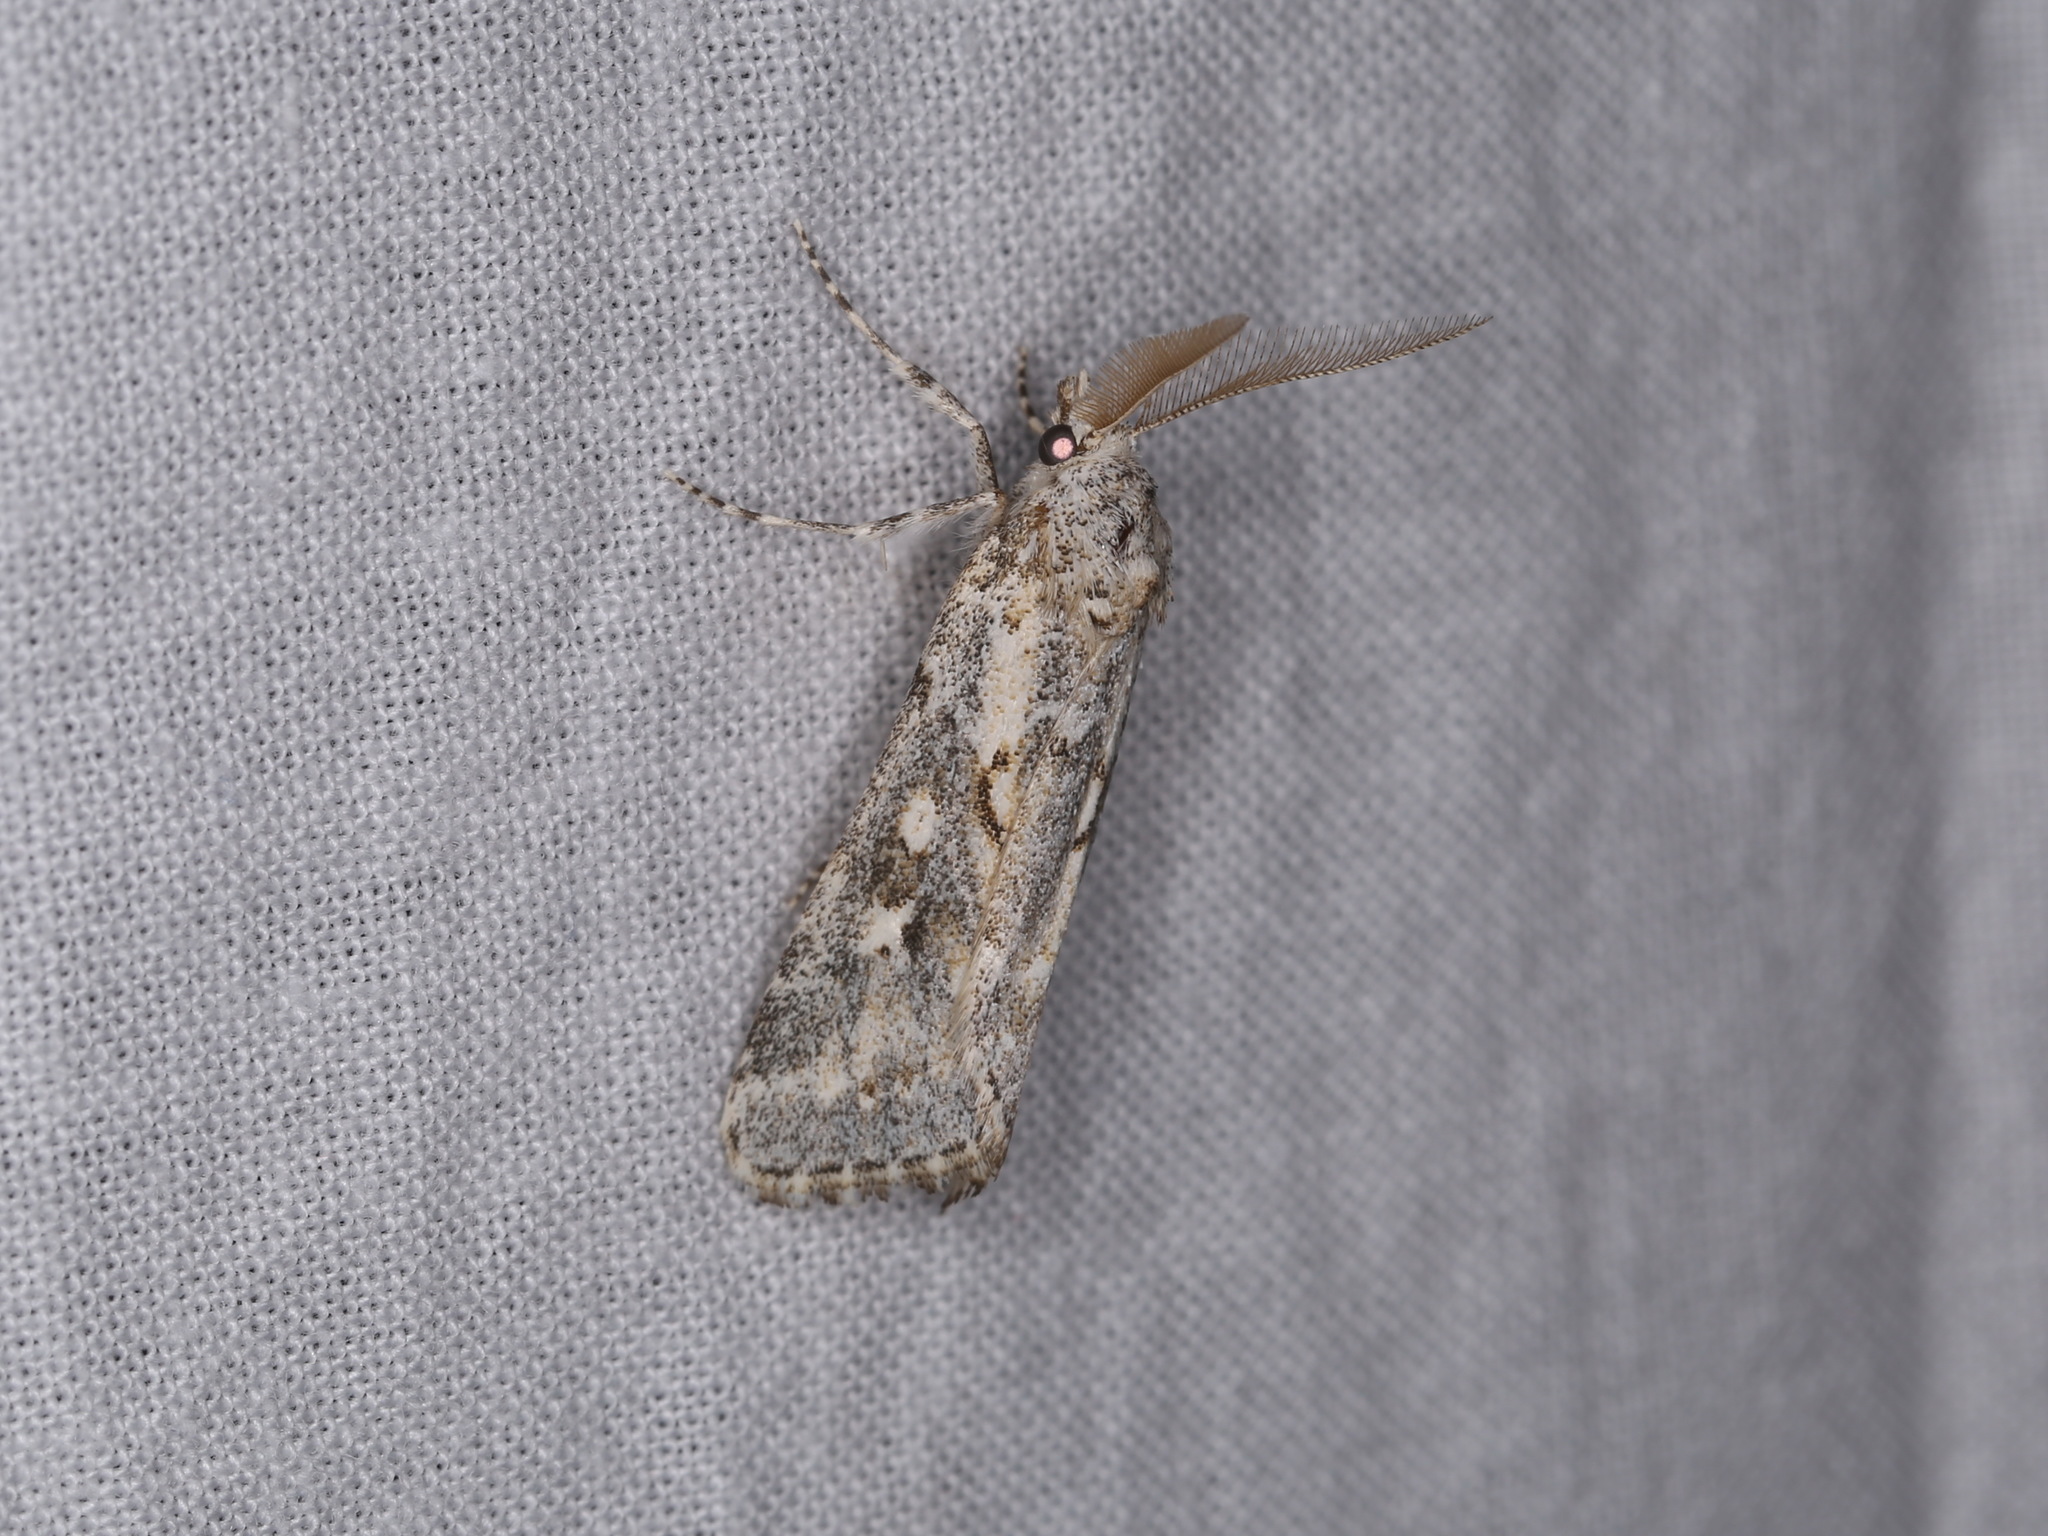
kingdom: Animalia
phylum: Arthropoda
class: Insecta
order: Lepidoptera
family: Noctuidae
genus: Eremochroa
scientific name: Eremochroa alphitias
